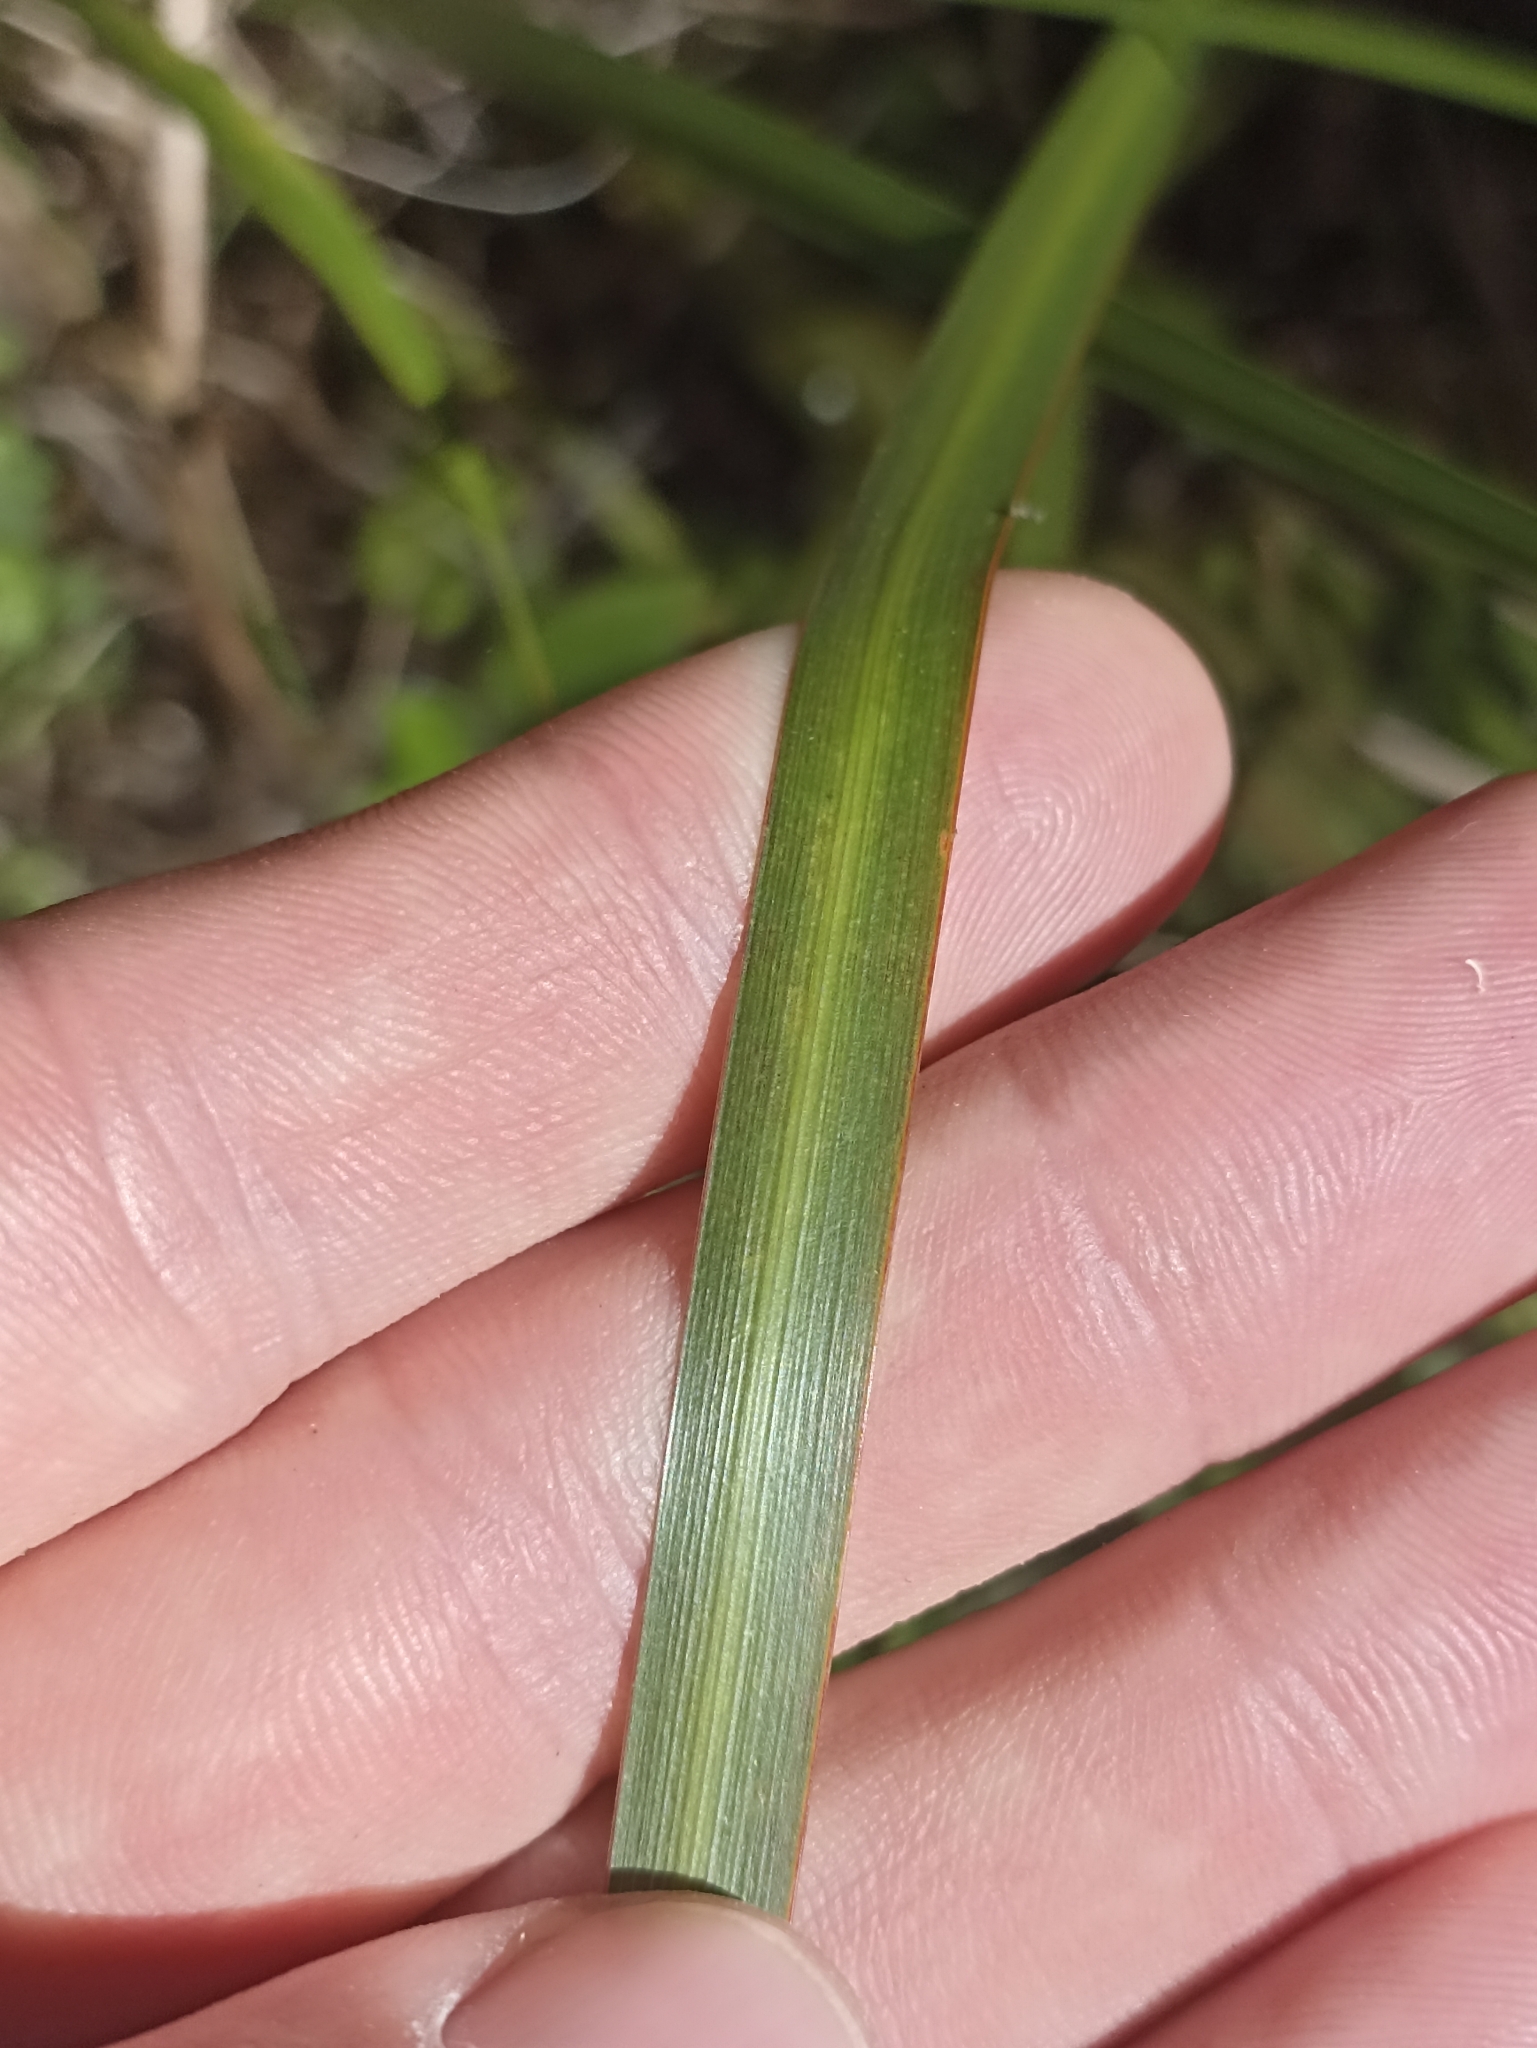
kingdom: Plantae
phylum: Tracheophyta
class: Liliopsida
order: Asparagales
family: Iridaceae
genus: Libertia
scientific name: Libertia grandiflora
